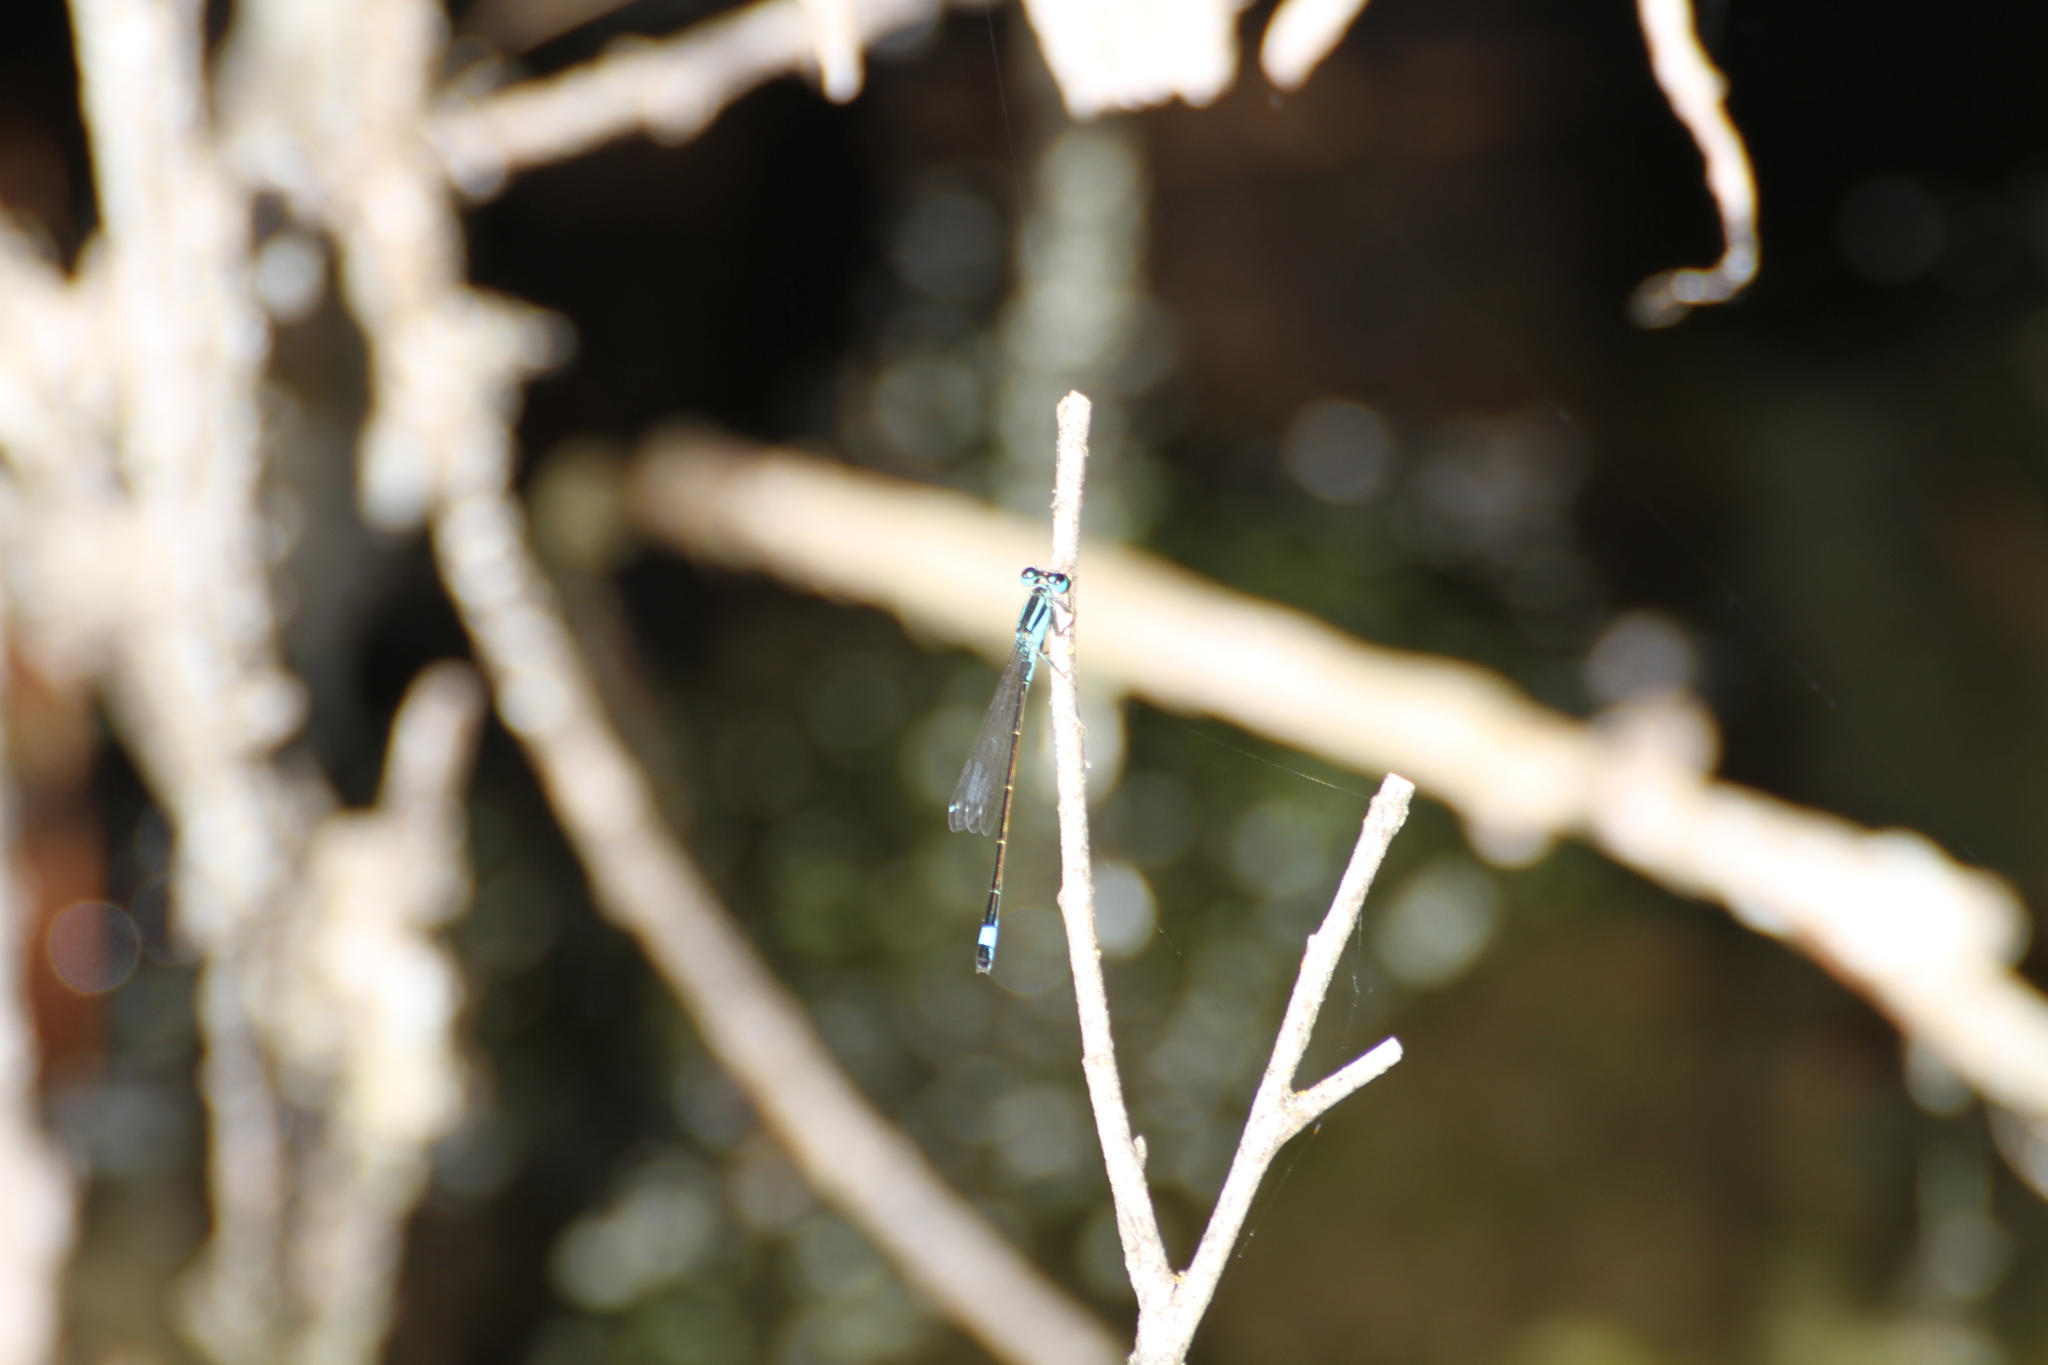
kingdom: Animalia
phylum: Arthropoda
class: Insecta
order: Odonata
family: Coenagrionidae
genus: Ischnura
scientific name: Ischnura elegans
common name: Blue-tailed damselfly
